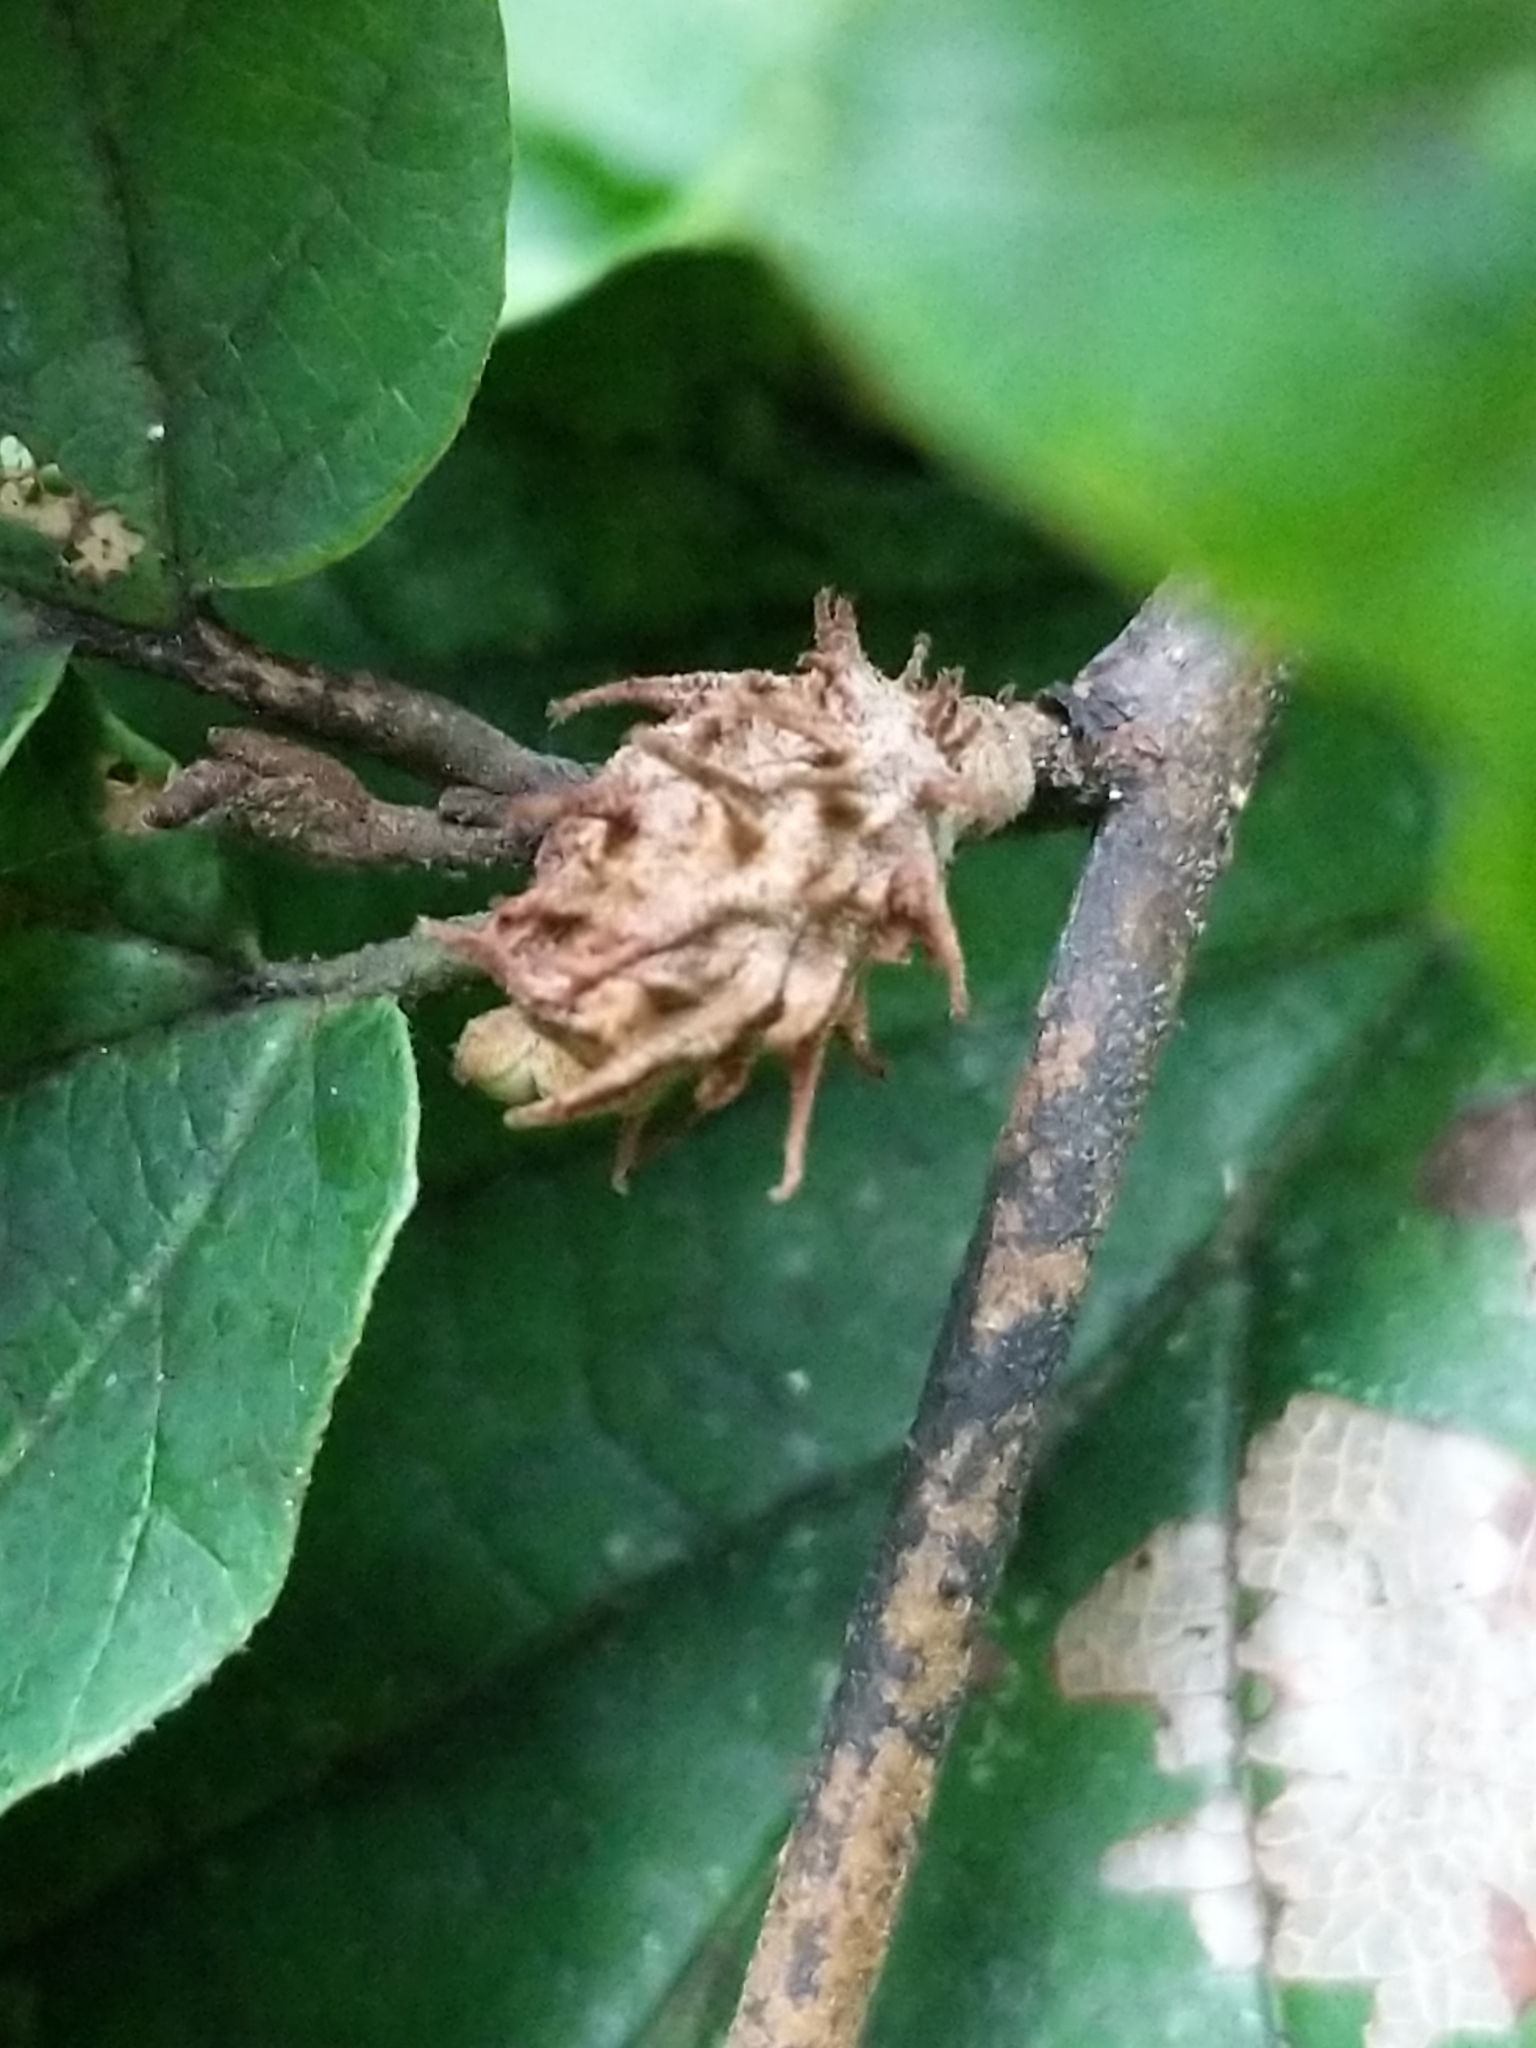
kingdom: Animalia
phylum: Arthropoda
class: Insecta
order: Hemiptera
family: Aphididae
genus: Hamamelistes
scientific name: Hamamelistes spinosus
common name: Witch hazel gall aphid
